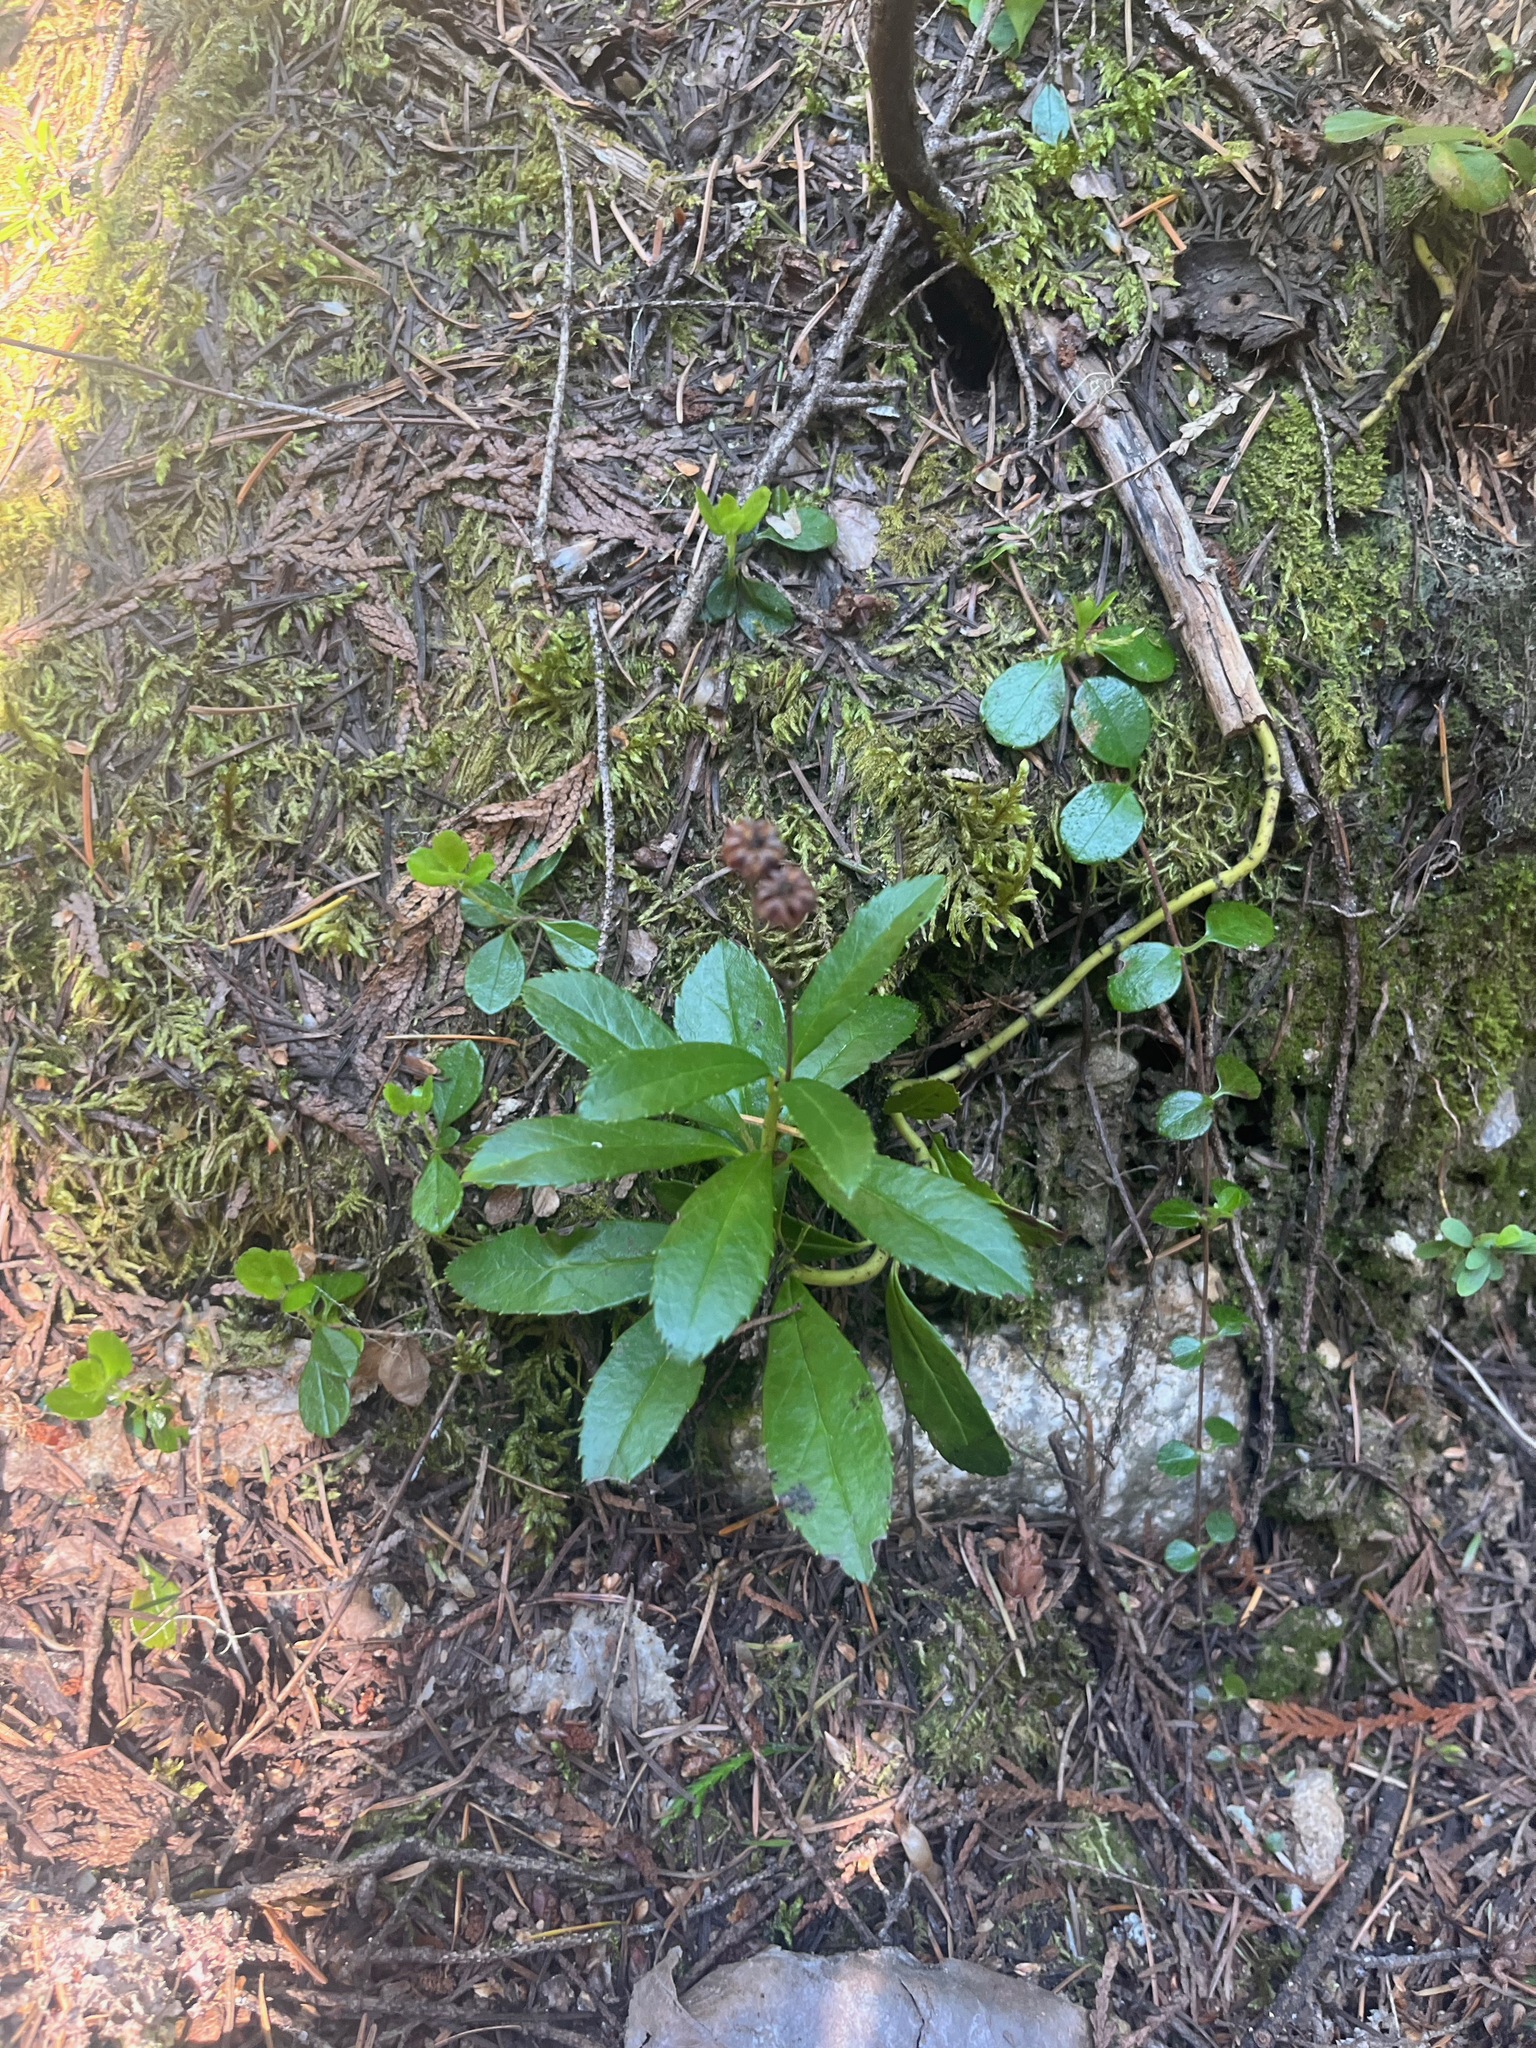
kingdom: Plantae
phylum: Tracheophyta
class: Magnoliopsida
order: Ericales
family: Ericaceae
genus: Chimaphila
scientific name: Chimaphila umbellata
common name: Pipsissewa
